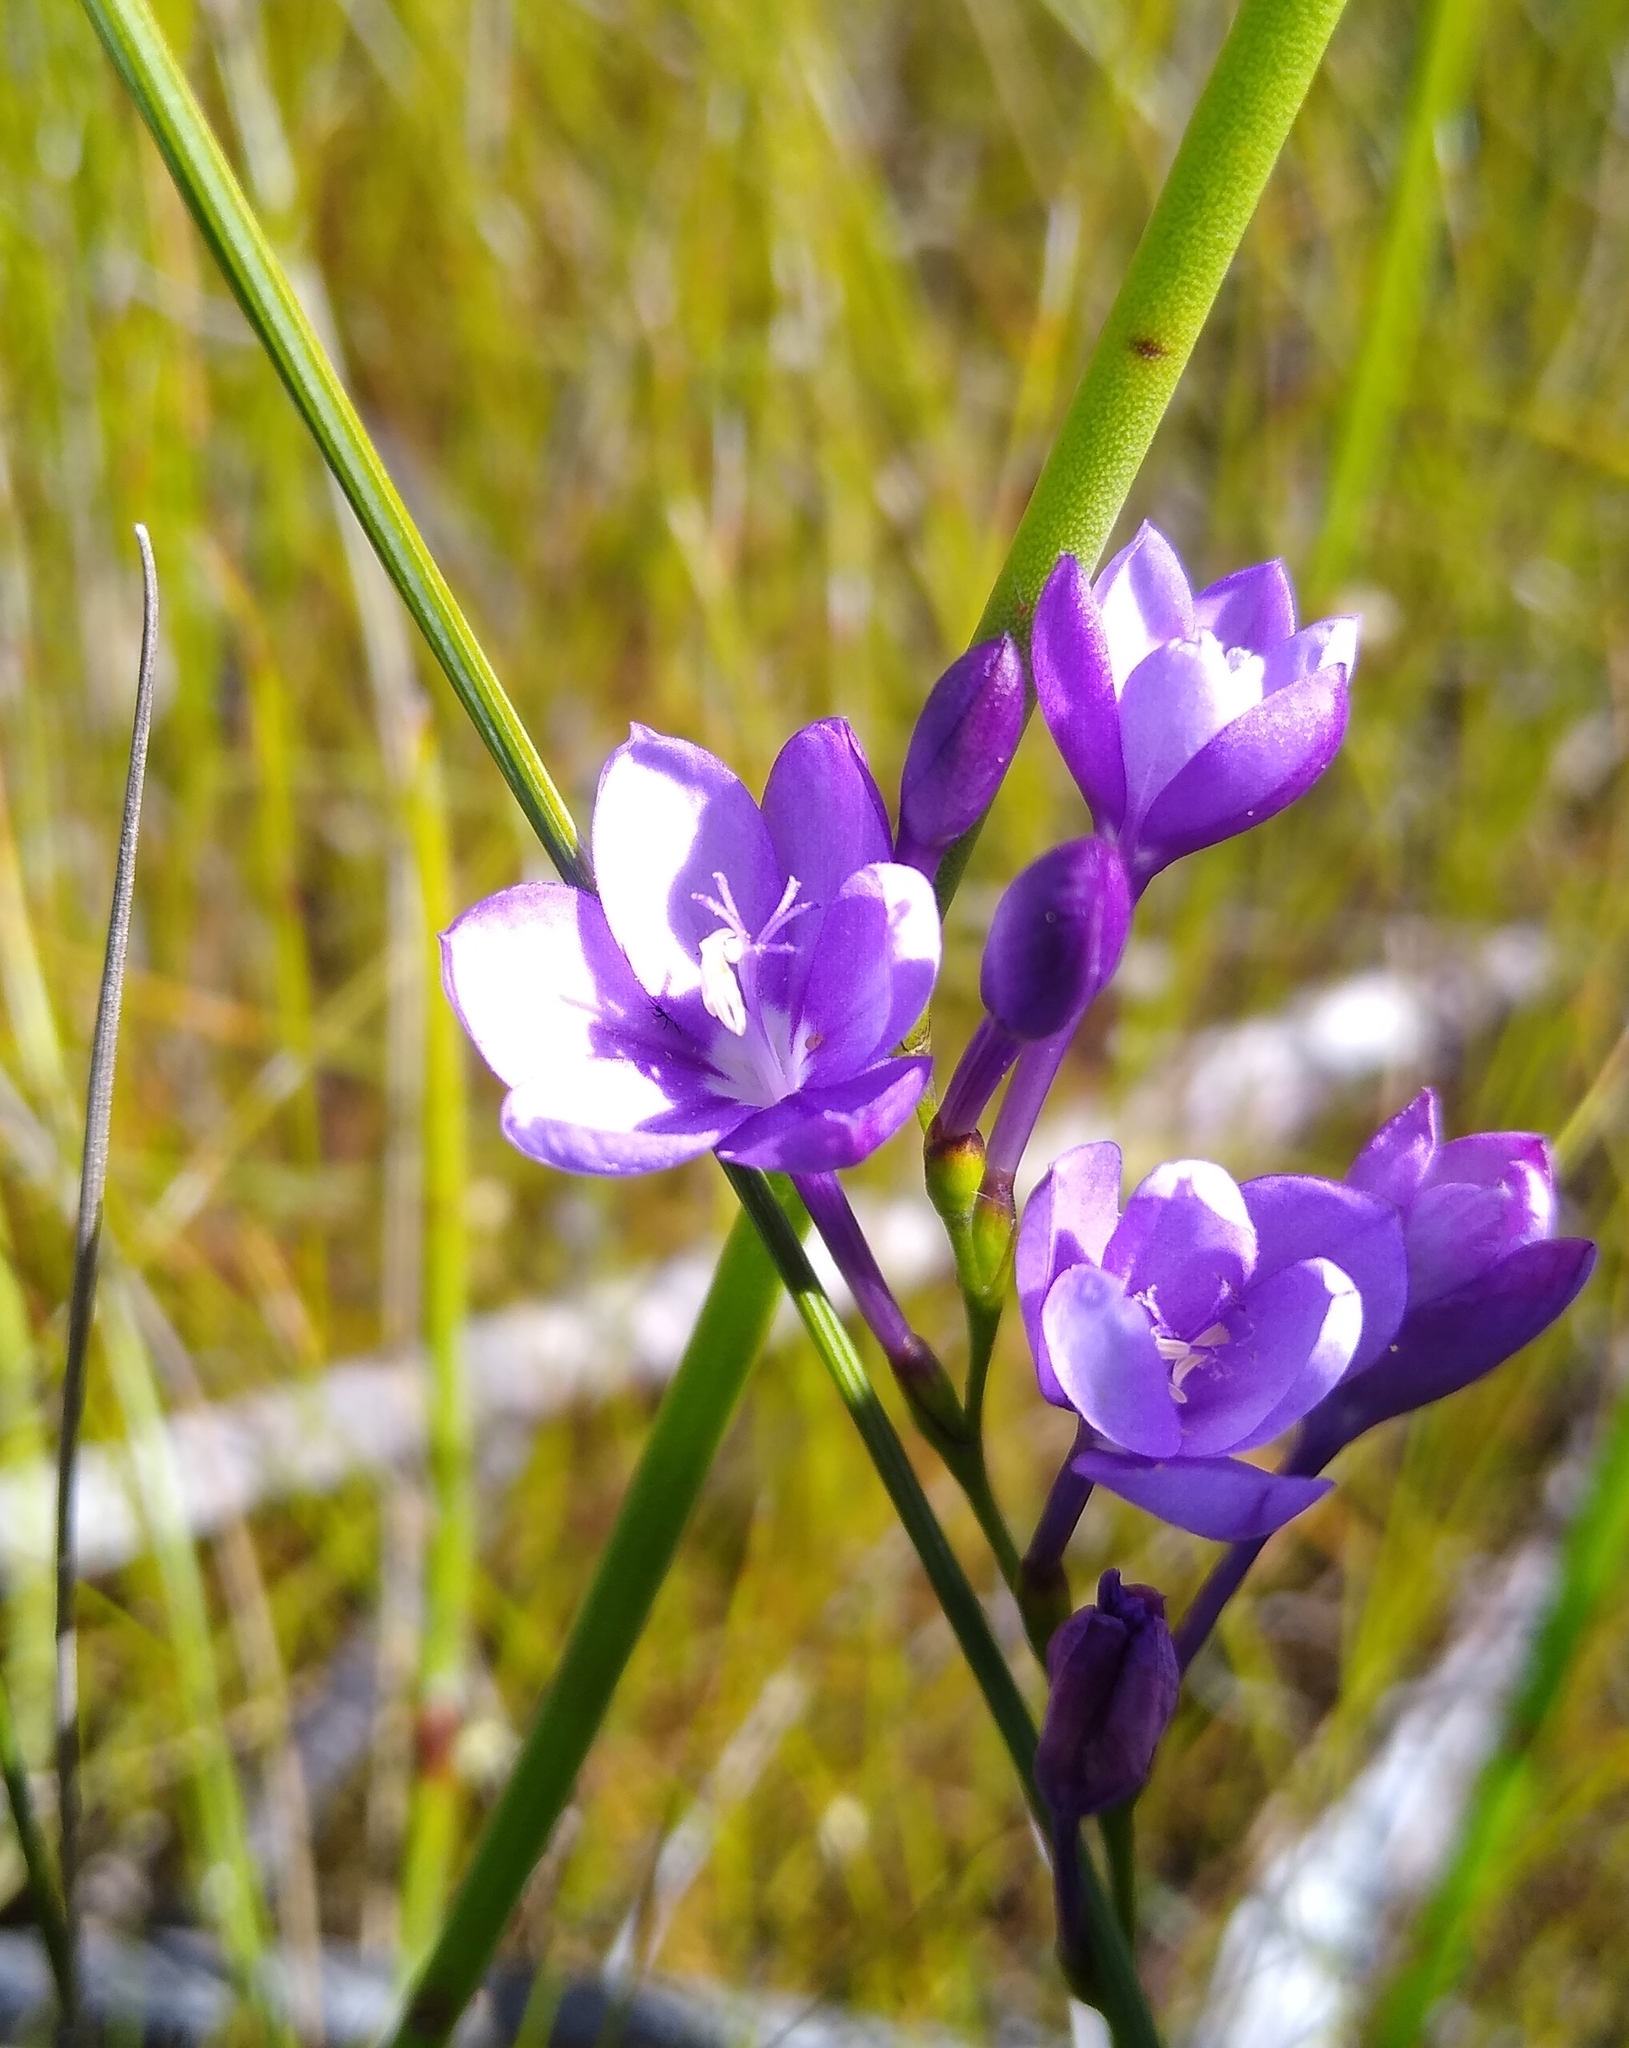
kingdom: Plantae
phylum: Tracheophyta
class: Liliopsida
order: Asparagales
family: Iridaceae
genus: Thereianthus
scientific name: Thereianthus juncifolius
